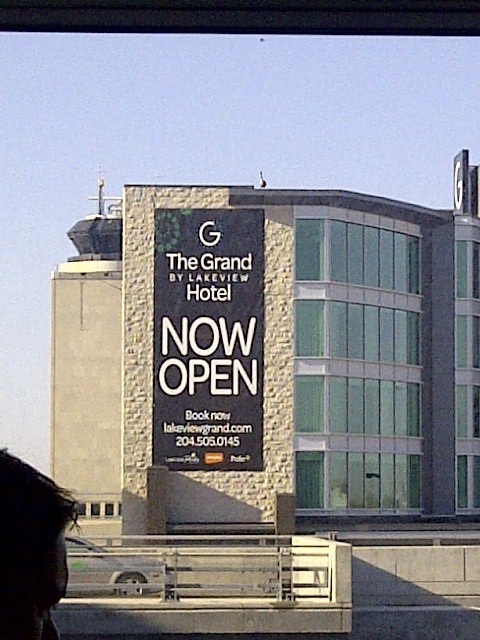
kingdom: Animalia
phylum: Chordata
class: Aves
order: Anseriformes
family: Anatidae
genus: Branta
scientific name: Branta canadensis
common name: Canada goose
